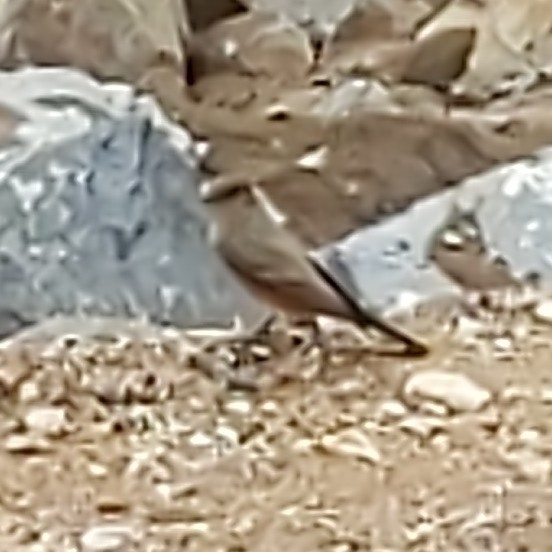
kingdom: Animalia
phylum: Chordata
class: Aves
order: Passeriformes
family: Tyrannidae
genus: Sayornis
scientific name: Sayornis saya
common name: Say's phoebe
